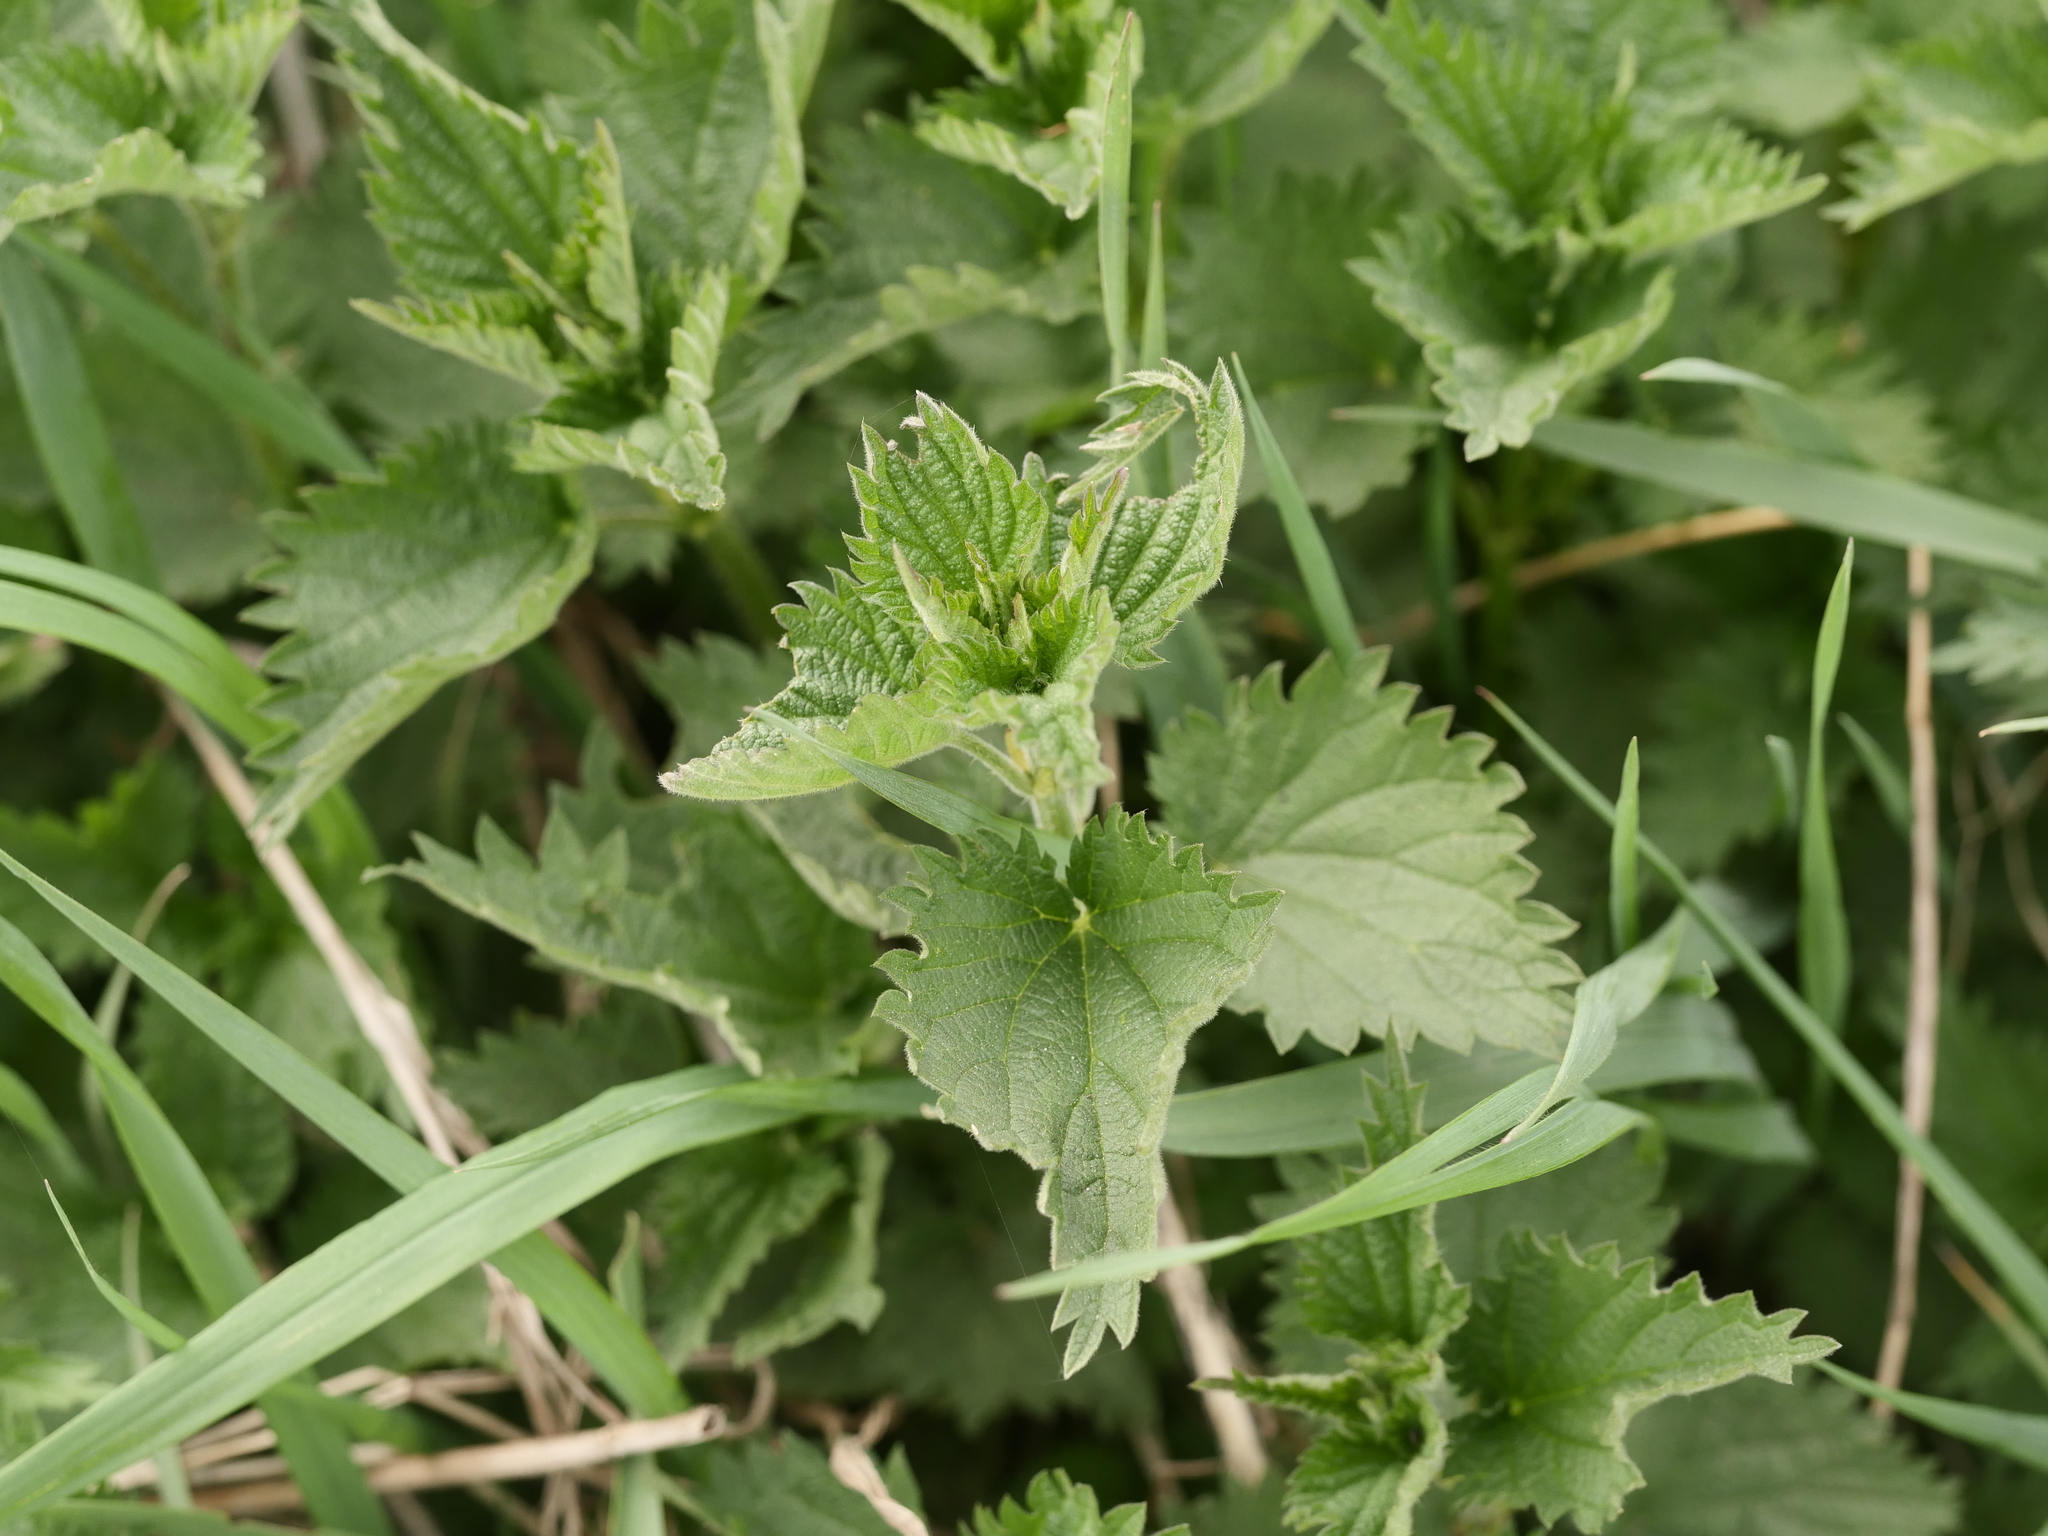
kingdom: Plantae
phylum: Tracheophyta
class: Magnoliopsida
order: Rosales
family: Urticaceae
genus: Urtica
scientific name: Urtica dioica
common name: Common nettle
